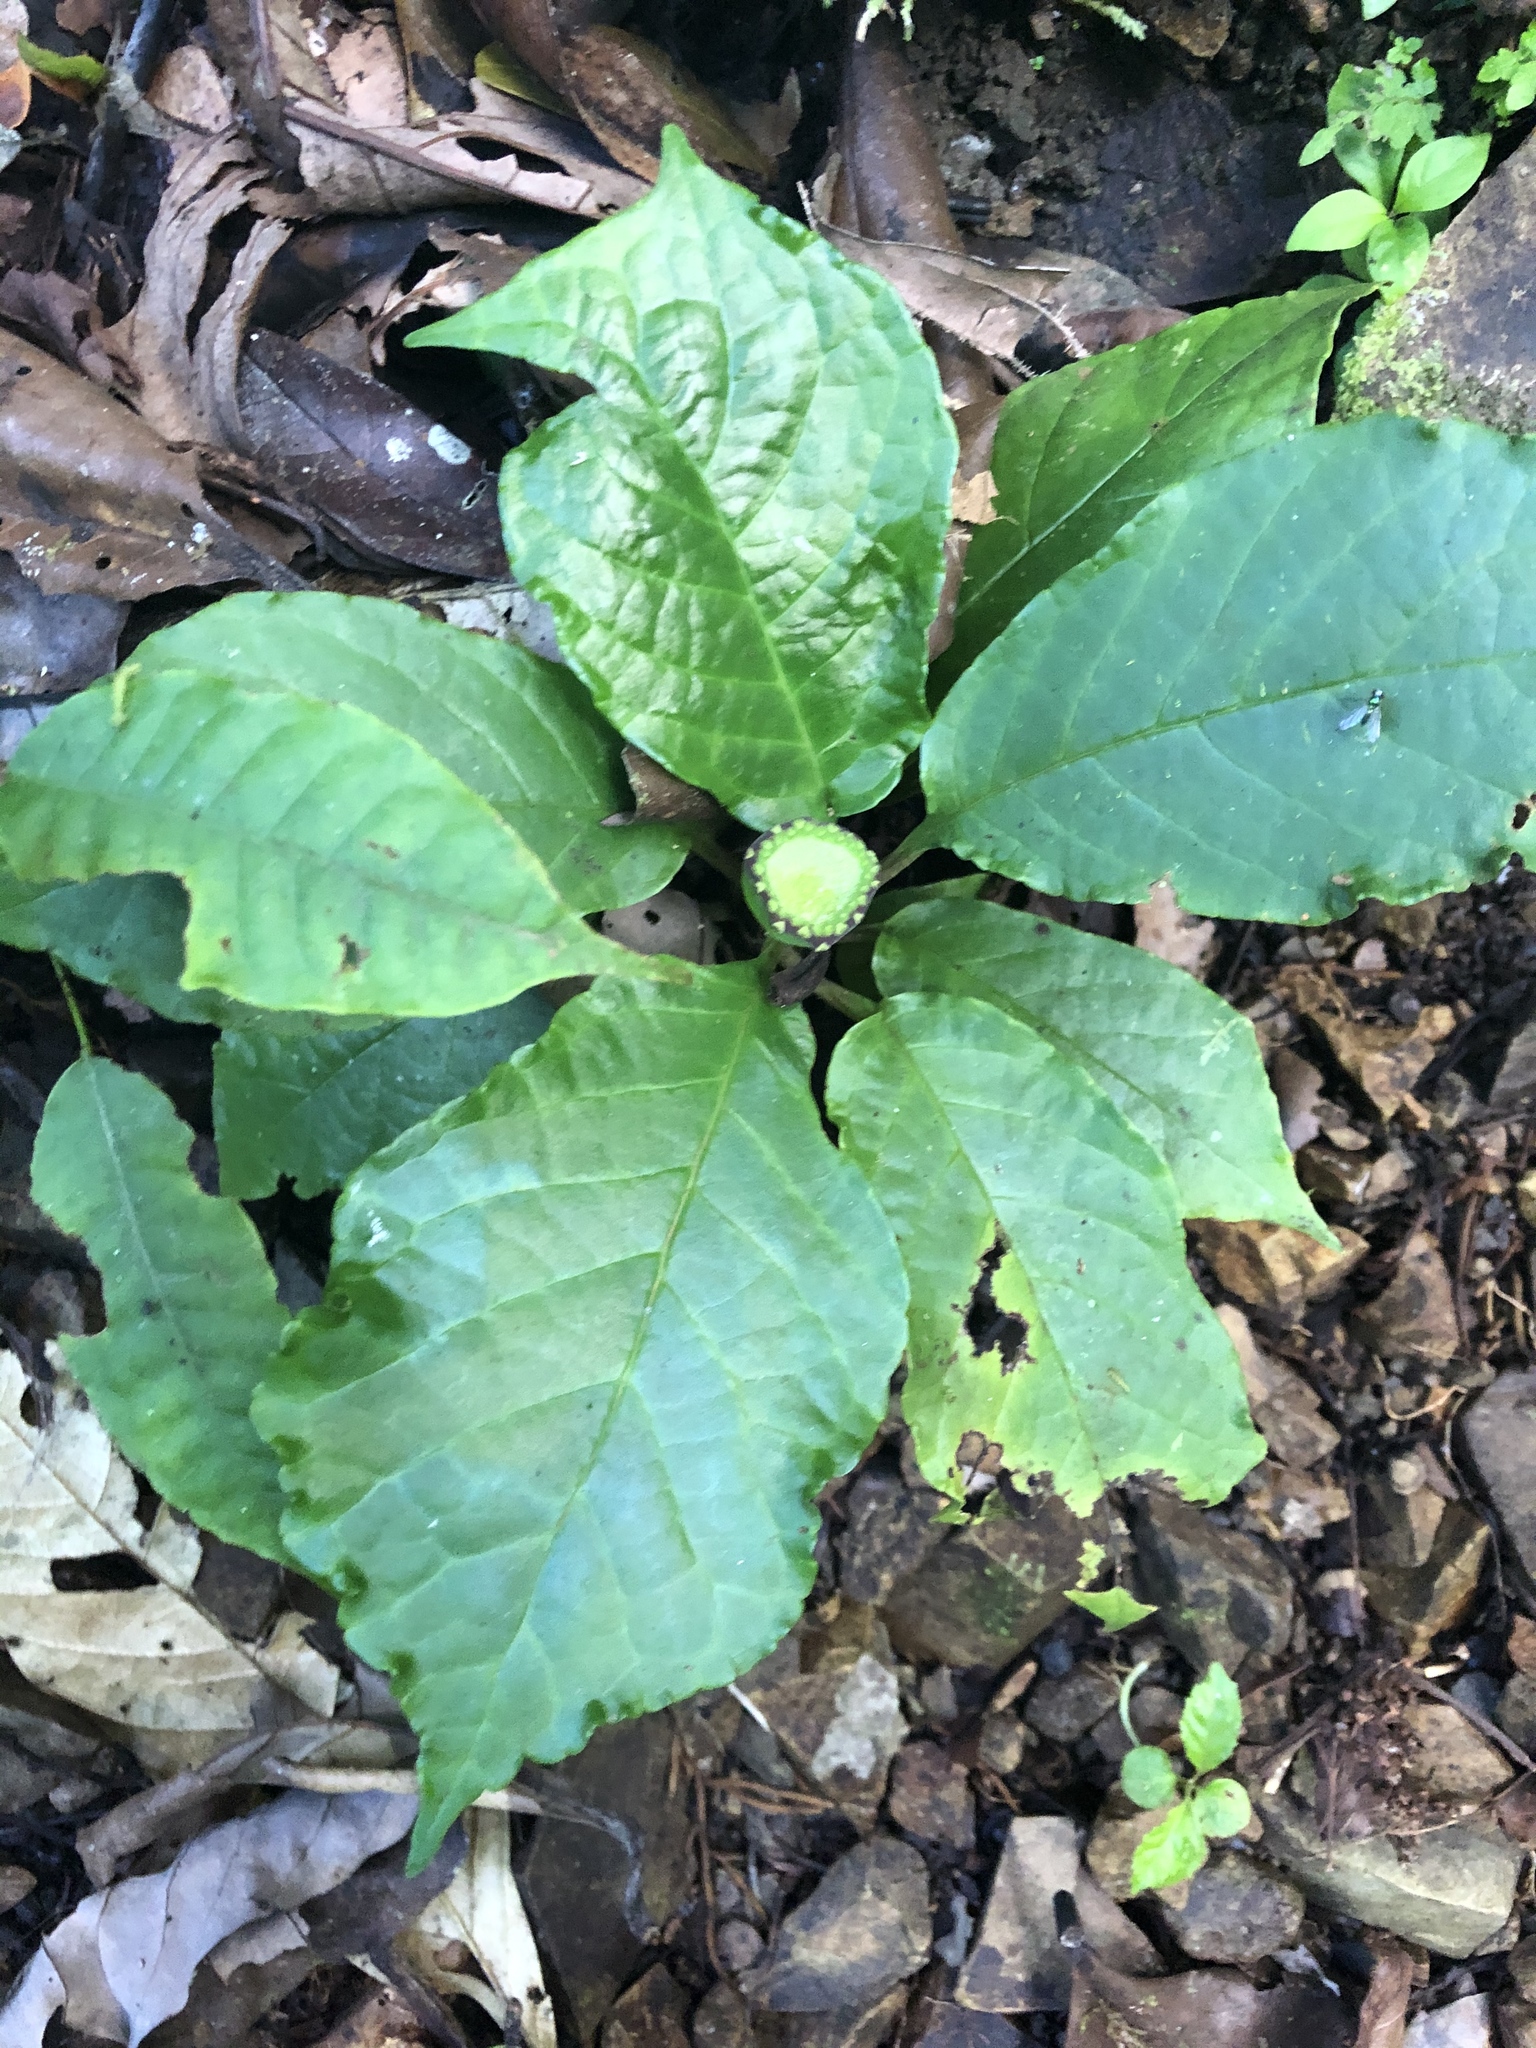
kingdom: Plantae
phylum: Tracheophyta
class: Magnoliopsida
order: Rosales
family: Moraceae
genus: Dorstenia
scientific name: Dorstenia choconiana
